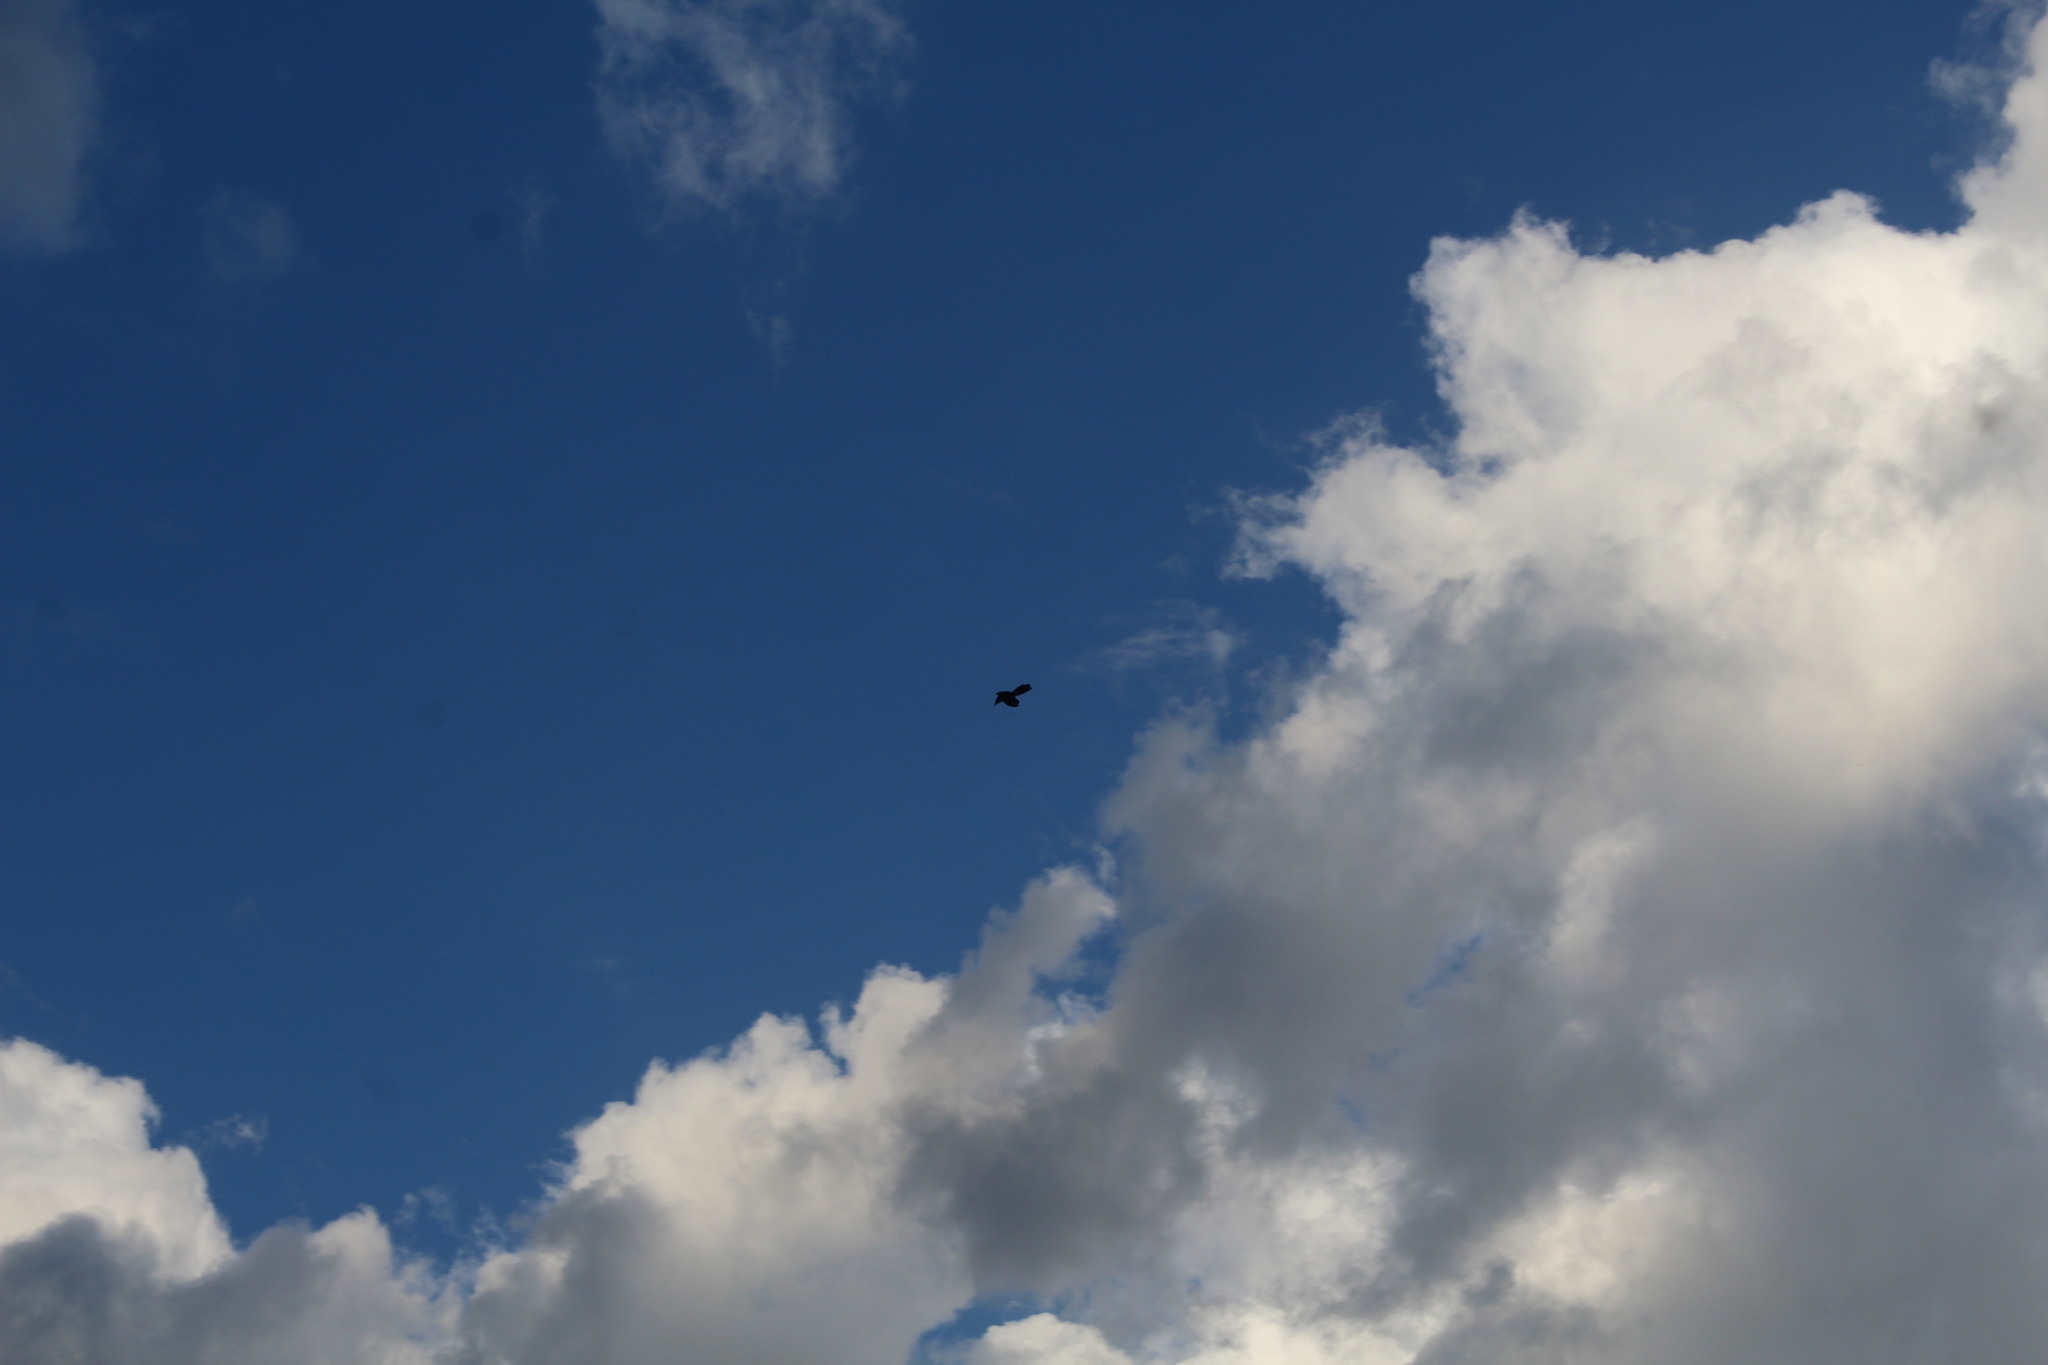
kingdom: Animalia
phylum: Chordata
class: Aves
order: Passeriformes
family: Icteridae
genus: Quiscalus
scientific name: Quiscalus mexicanus
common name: Great-tailed grackle
